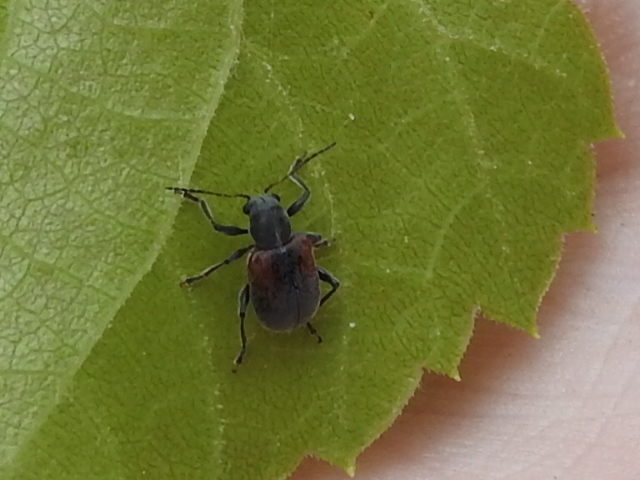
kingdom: Animalia
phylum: Arthropoda
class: Insecta
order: Coleoptera
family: Chrysomelidae
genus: Neofidia
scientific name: Neofidia
